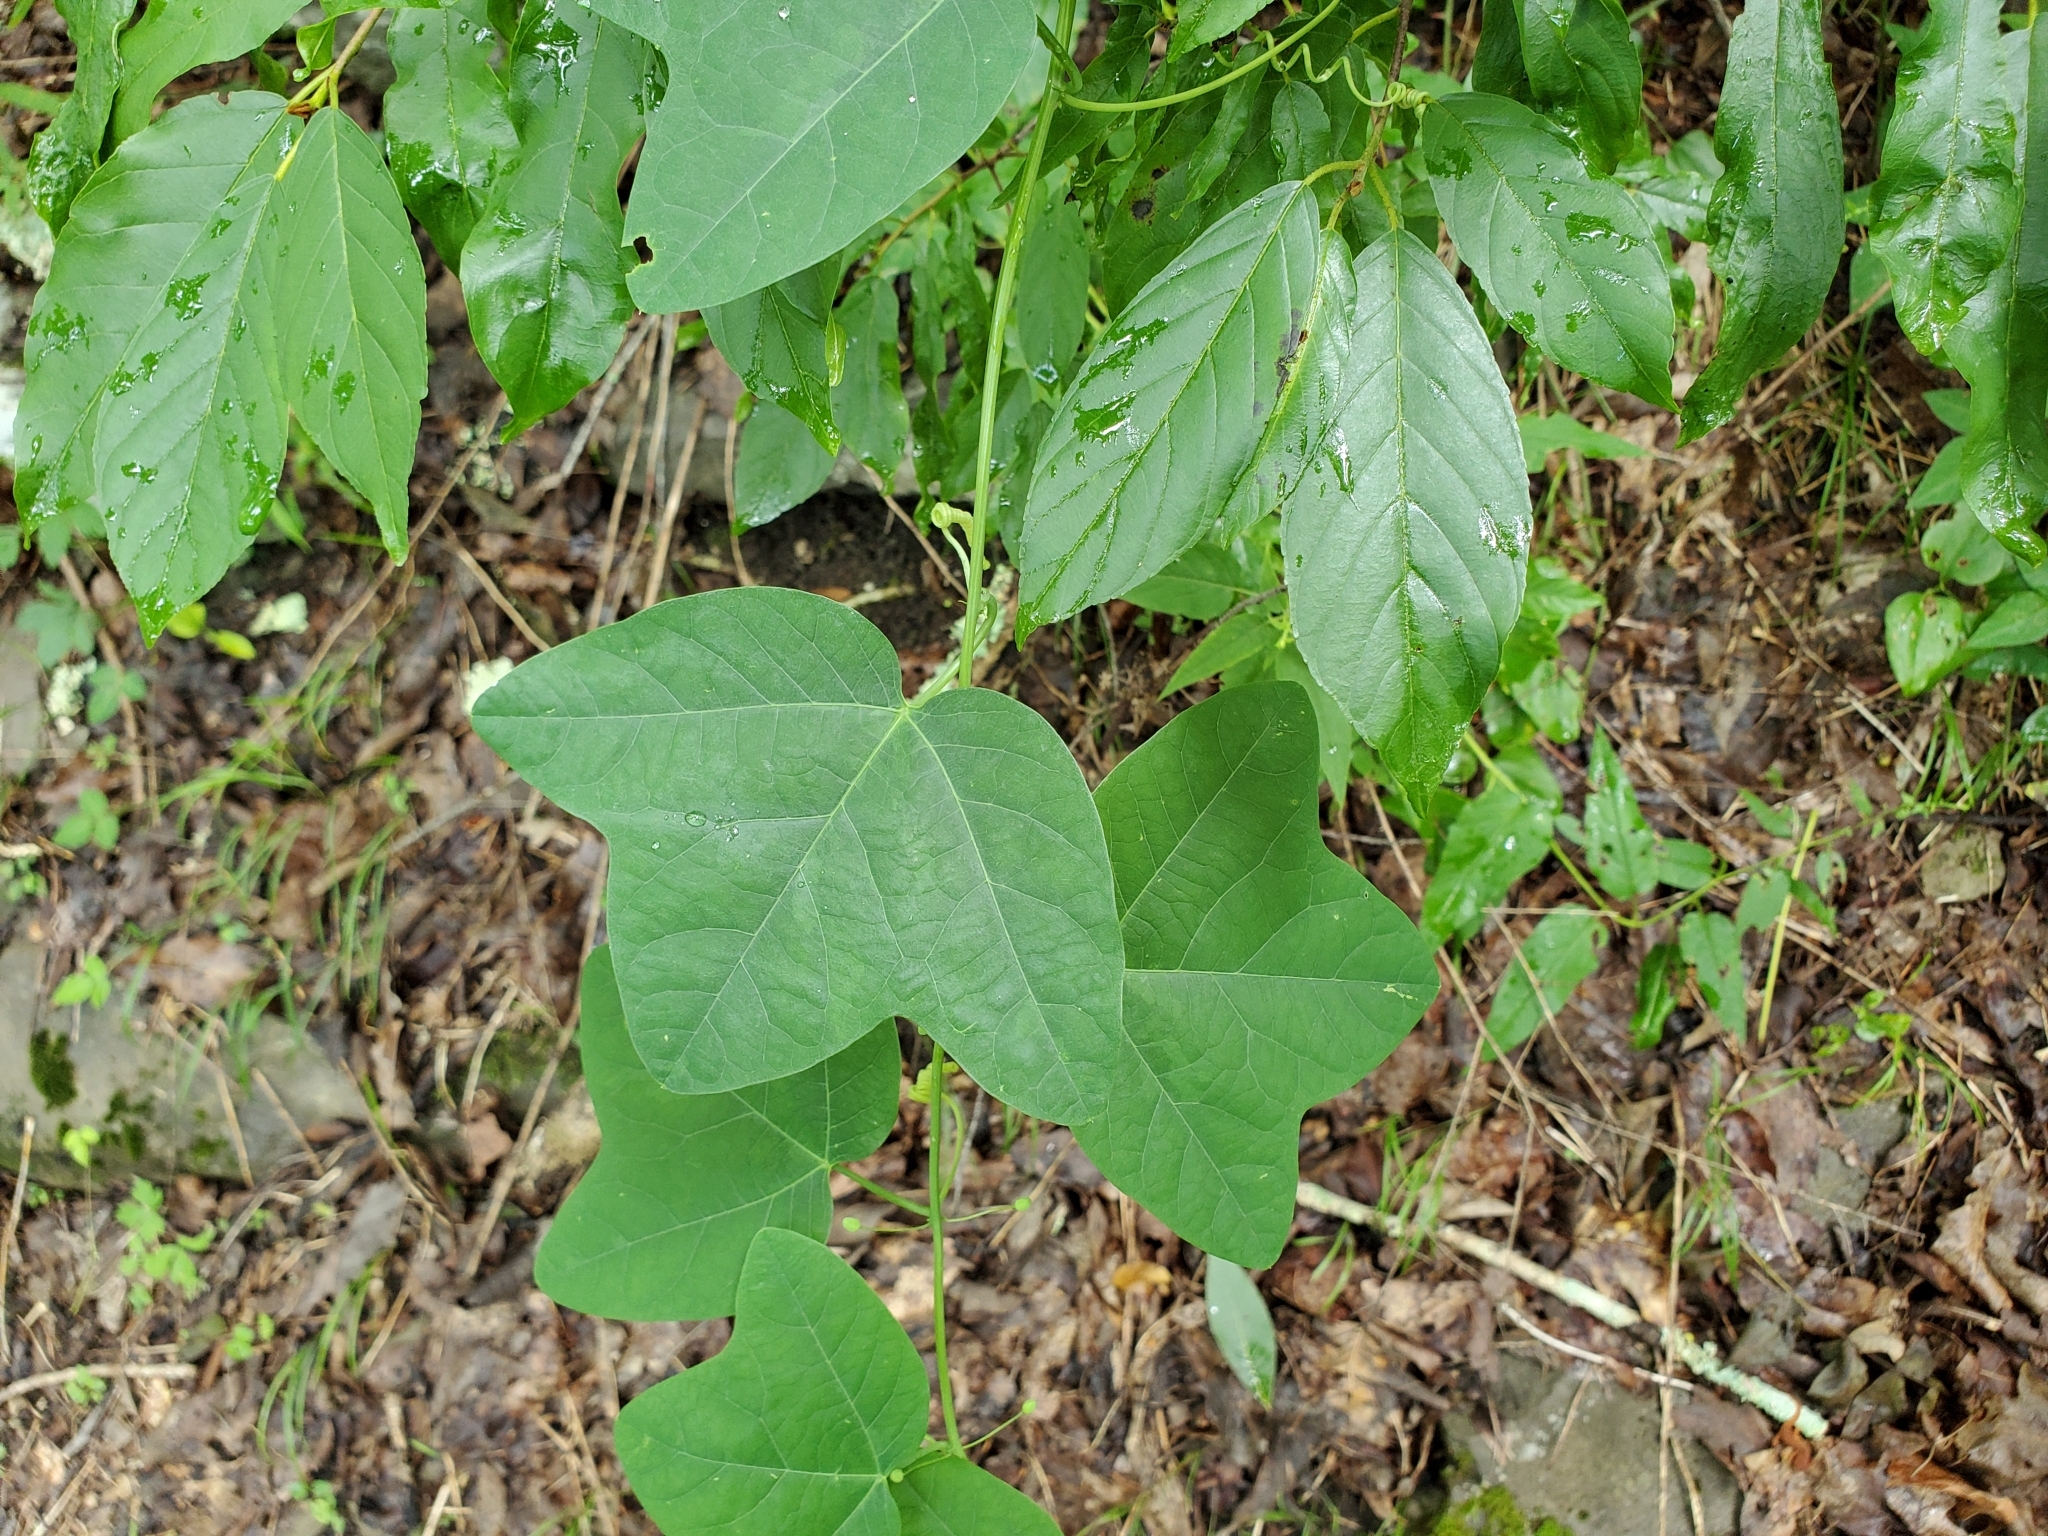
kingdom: Plantae
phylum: Tracheophyta
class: Magnoliopsida
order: Malpighiales
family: Passifloraceae
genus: Passiflora
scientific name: Passiflora lutea
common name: Yellow passionflower
